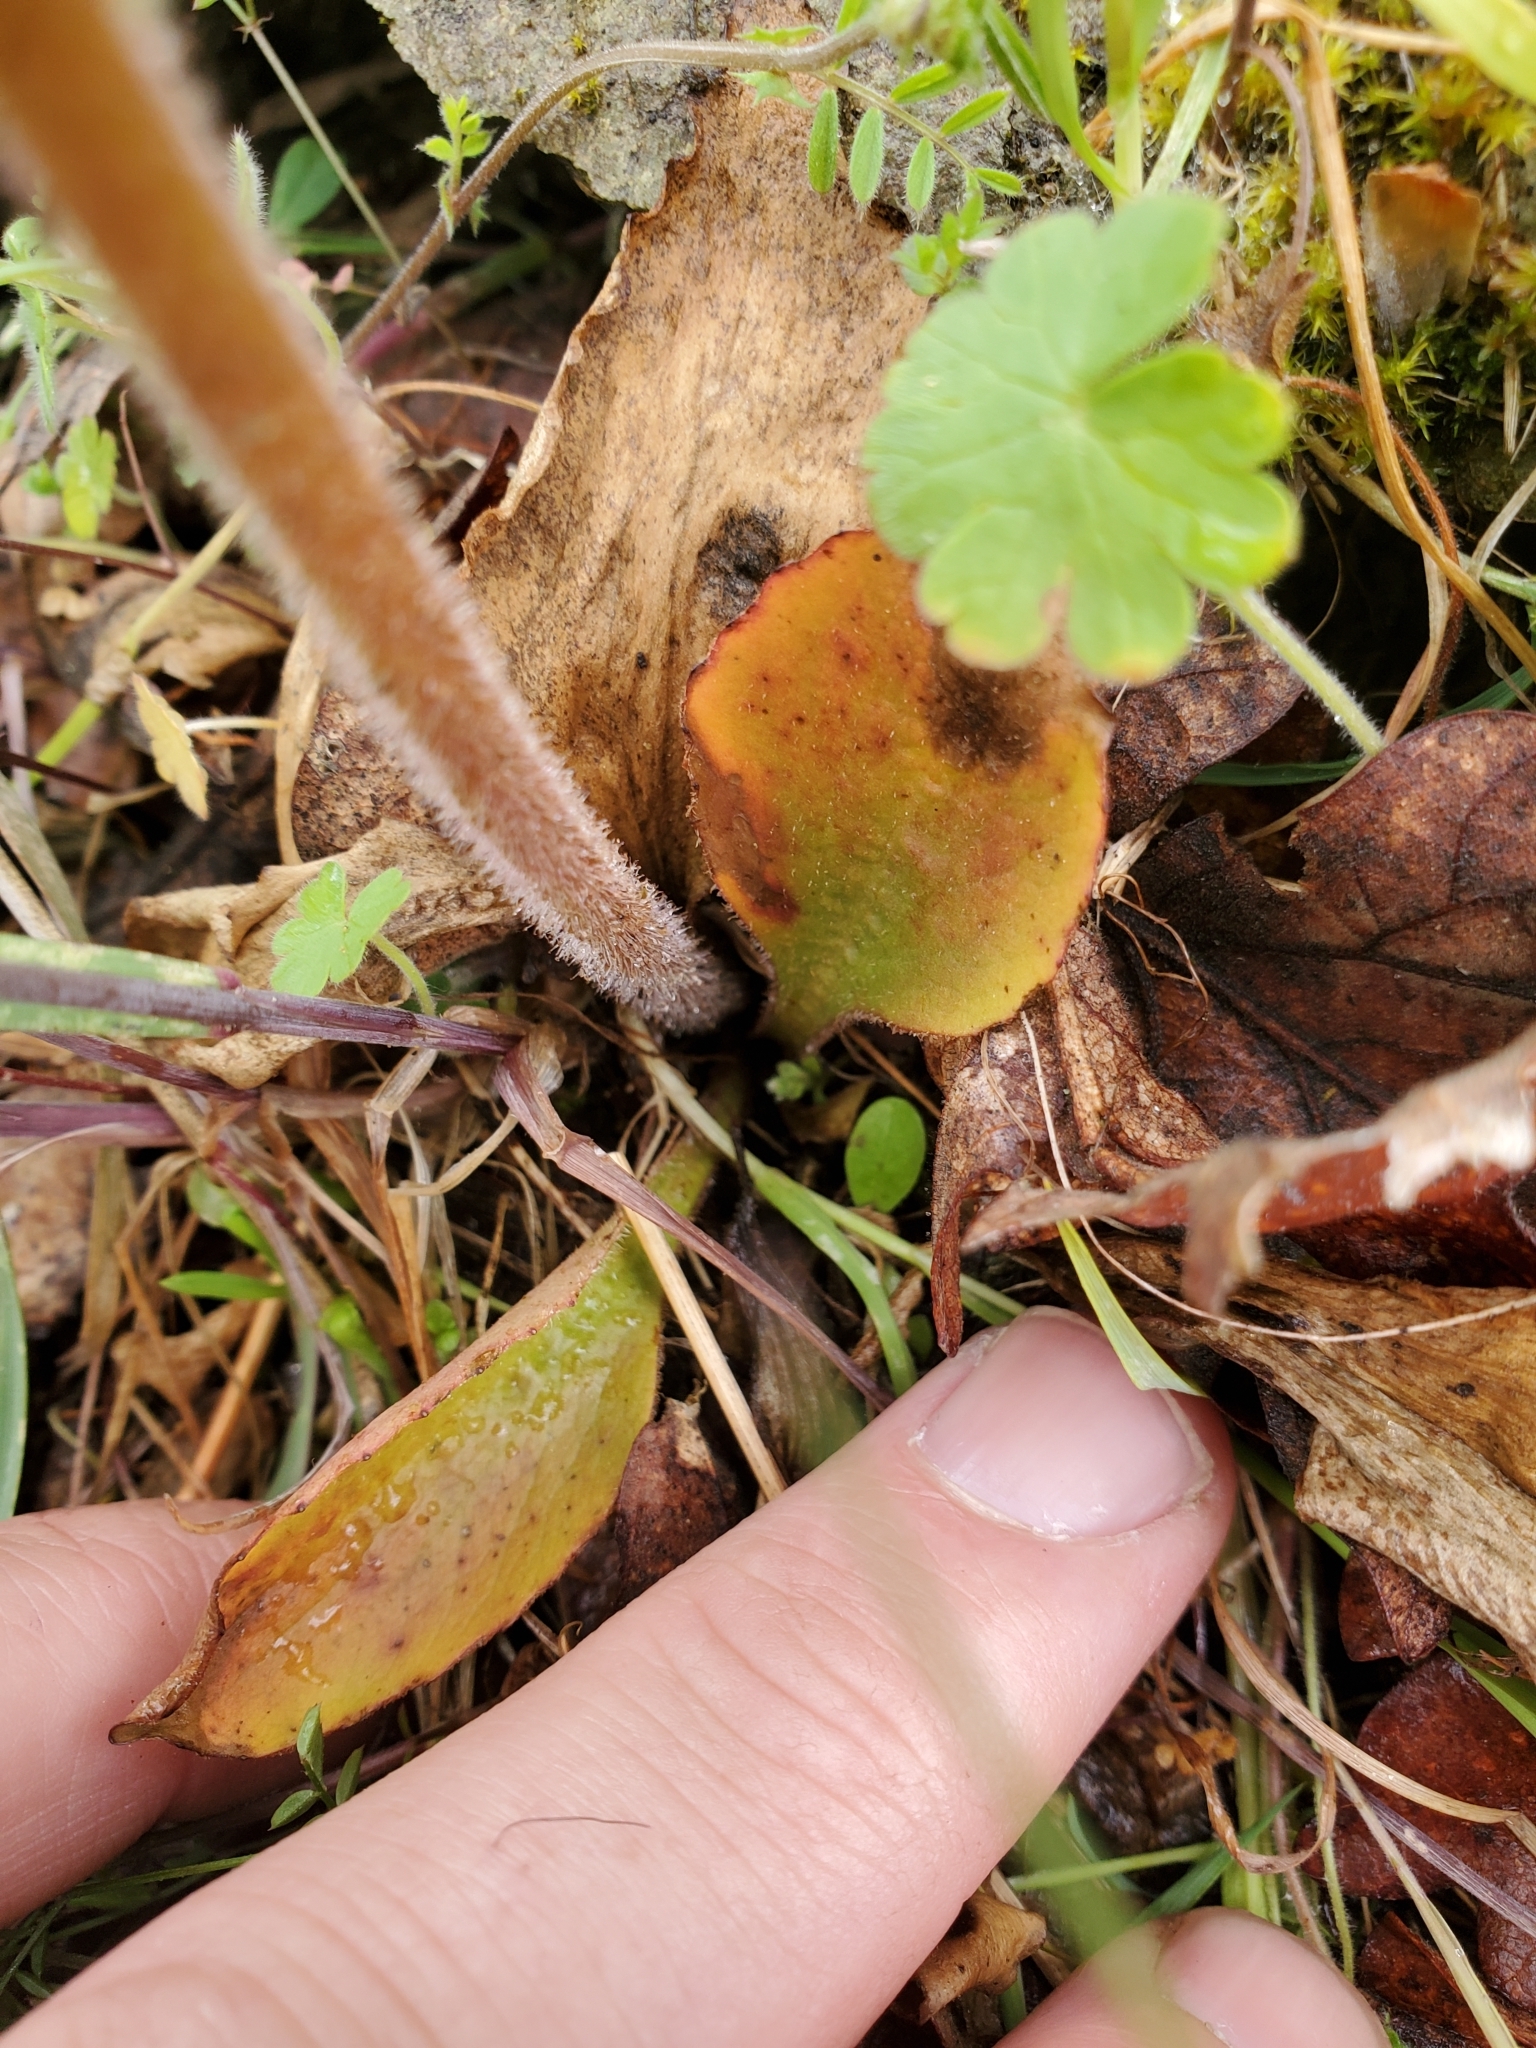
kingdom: Plantae
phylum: Tracheophyta
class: Magnoliopsida
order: Saxifragales
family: Saxifragaceae
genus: Micranthes
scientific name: Micranthes integrifolia
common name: Wholeleaf saxifrage
